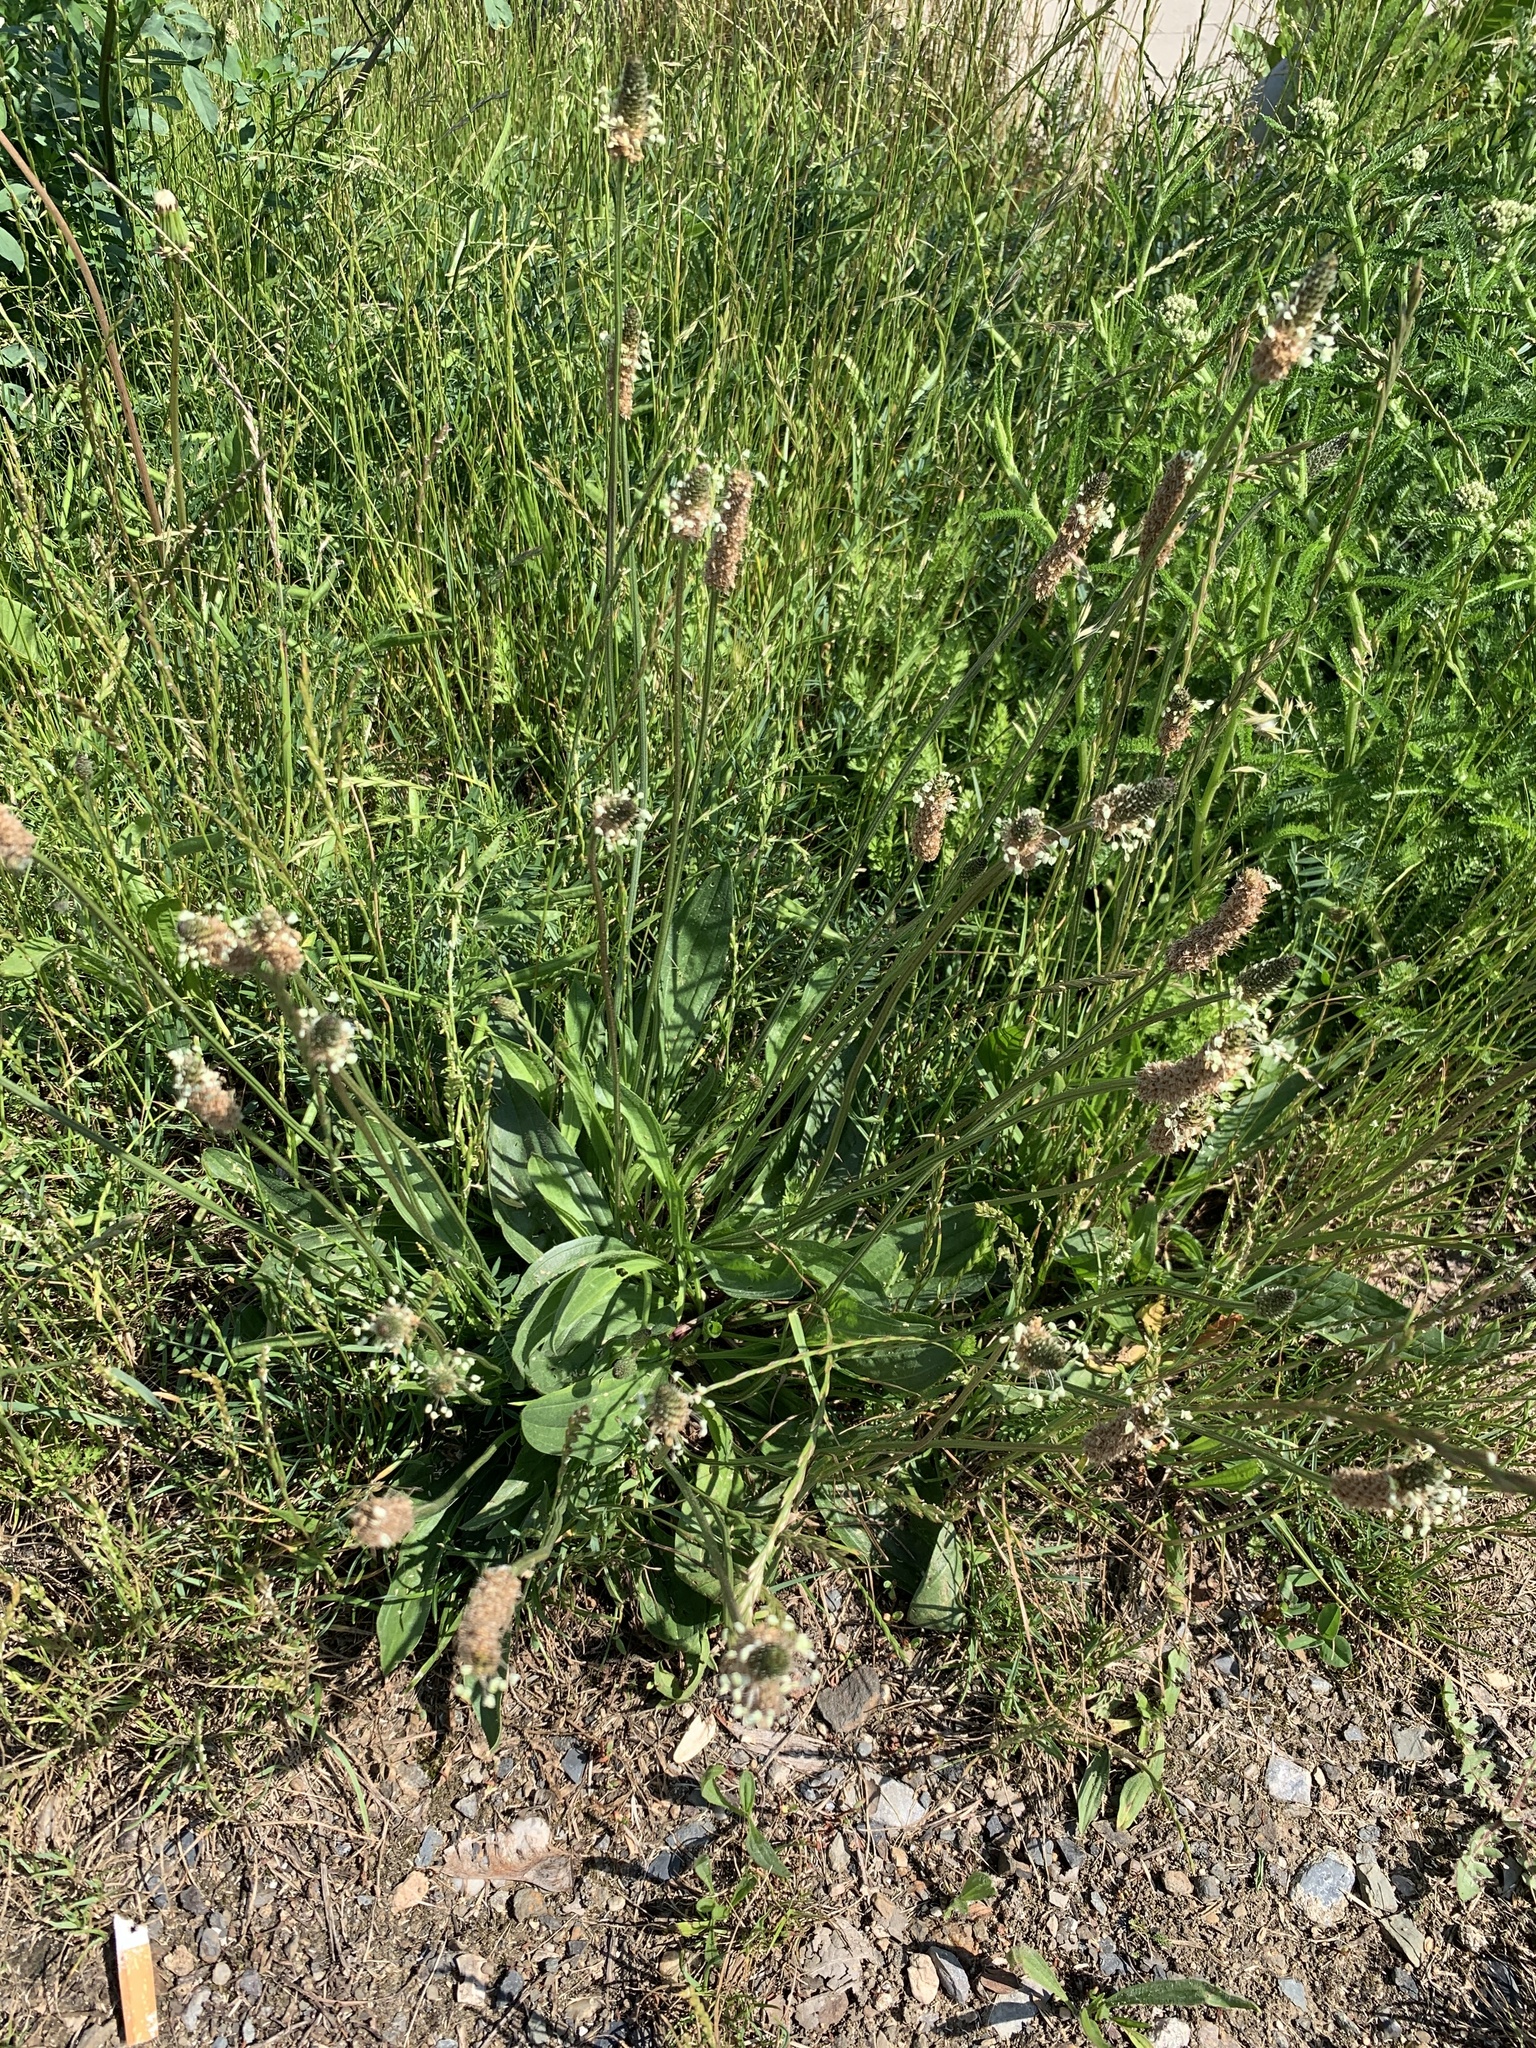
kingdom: Plantae
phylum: Tracheophyta
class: Magnoliopsida
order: Lamiales
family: Plantaginaceae
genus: Plantago
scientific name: Plantago lanceolata
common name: Ribwort plantain
